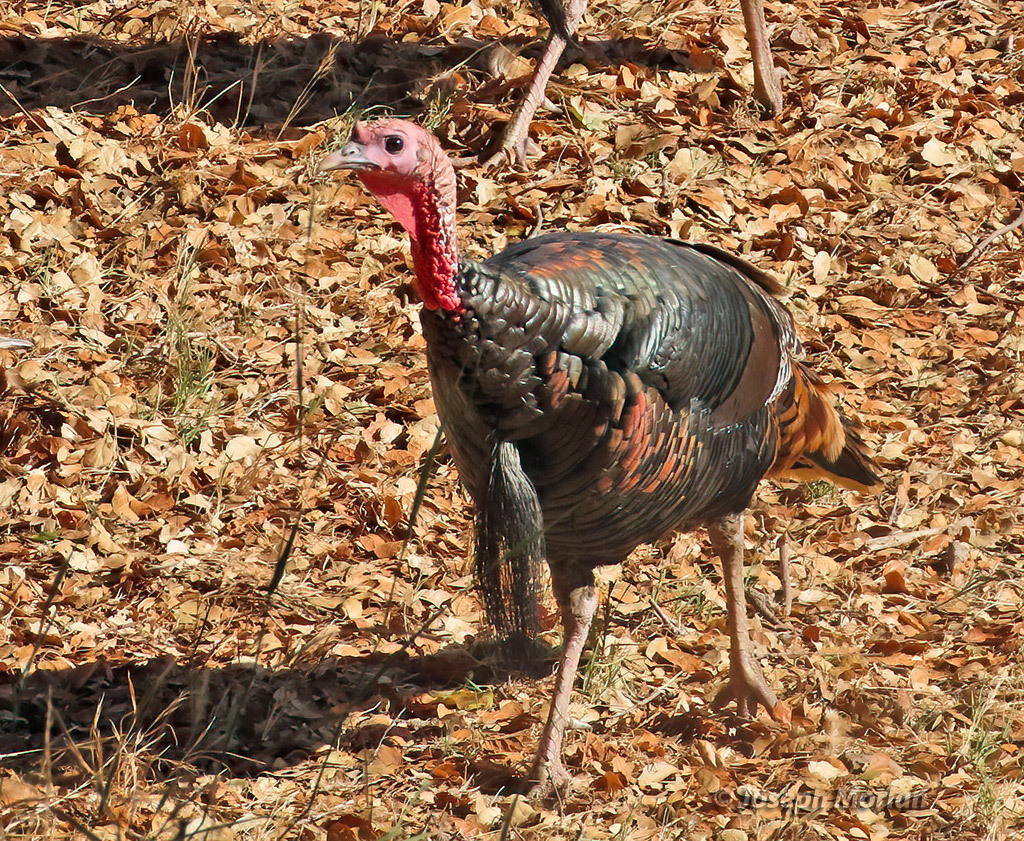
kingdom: Animalia
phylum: Chordata
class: Aves
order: Galliformes
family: Phasianidae
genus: Meleagris
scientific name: Meleagris gallopavo
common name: Wild turkey
